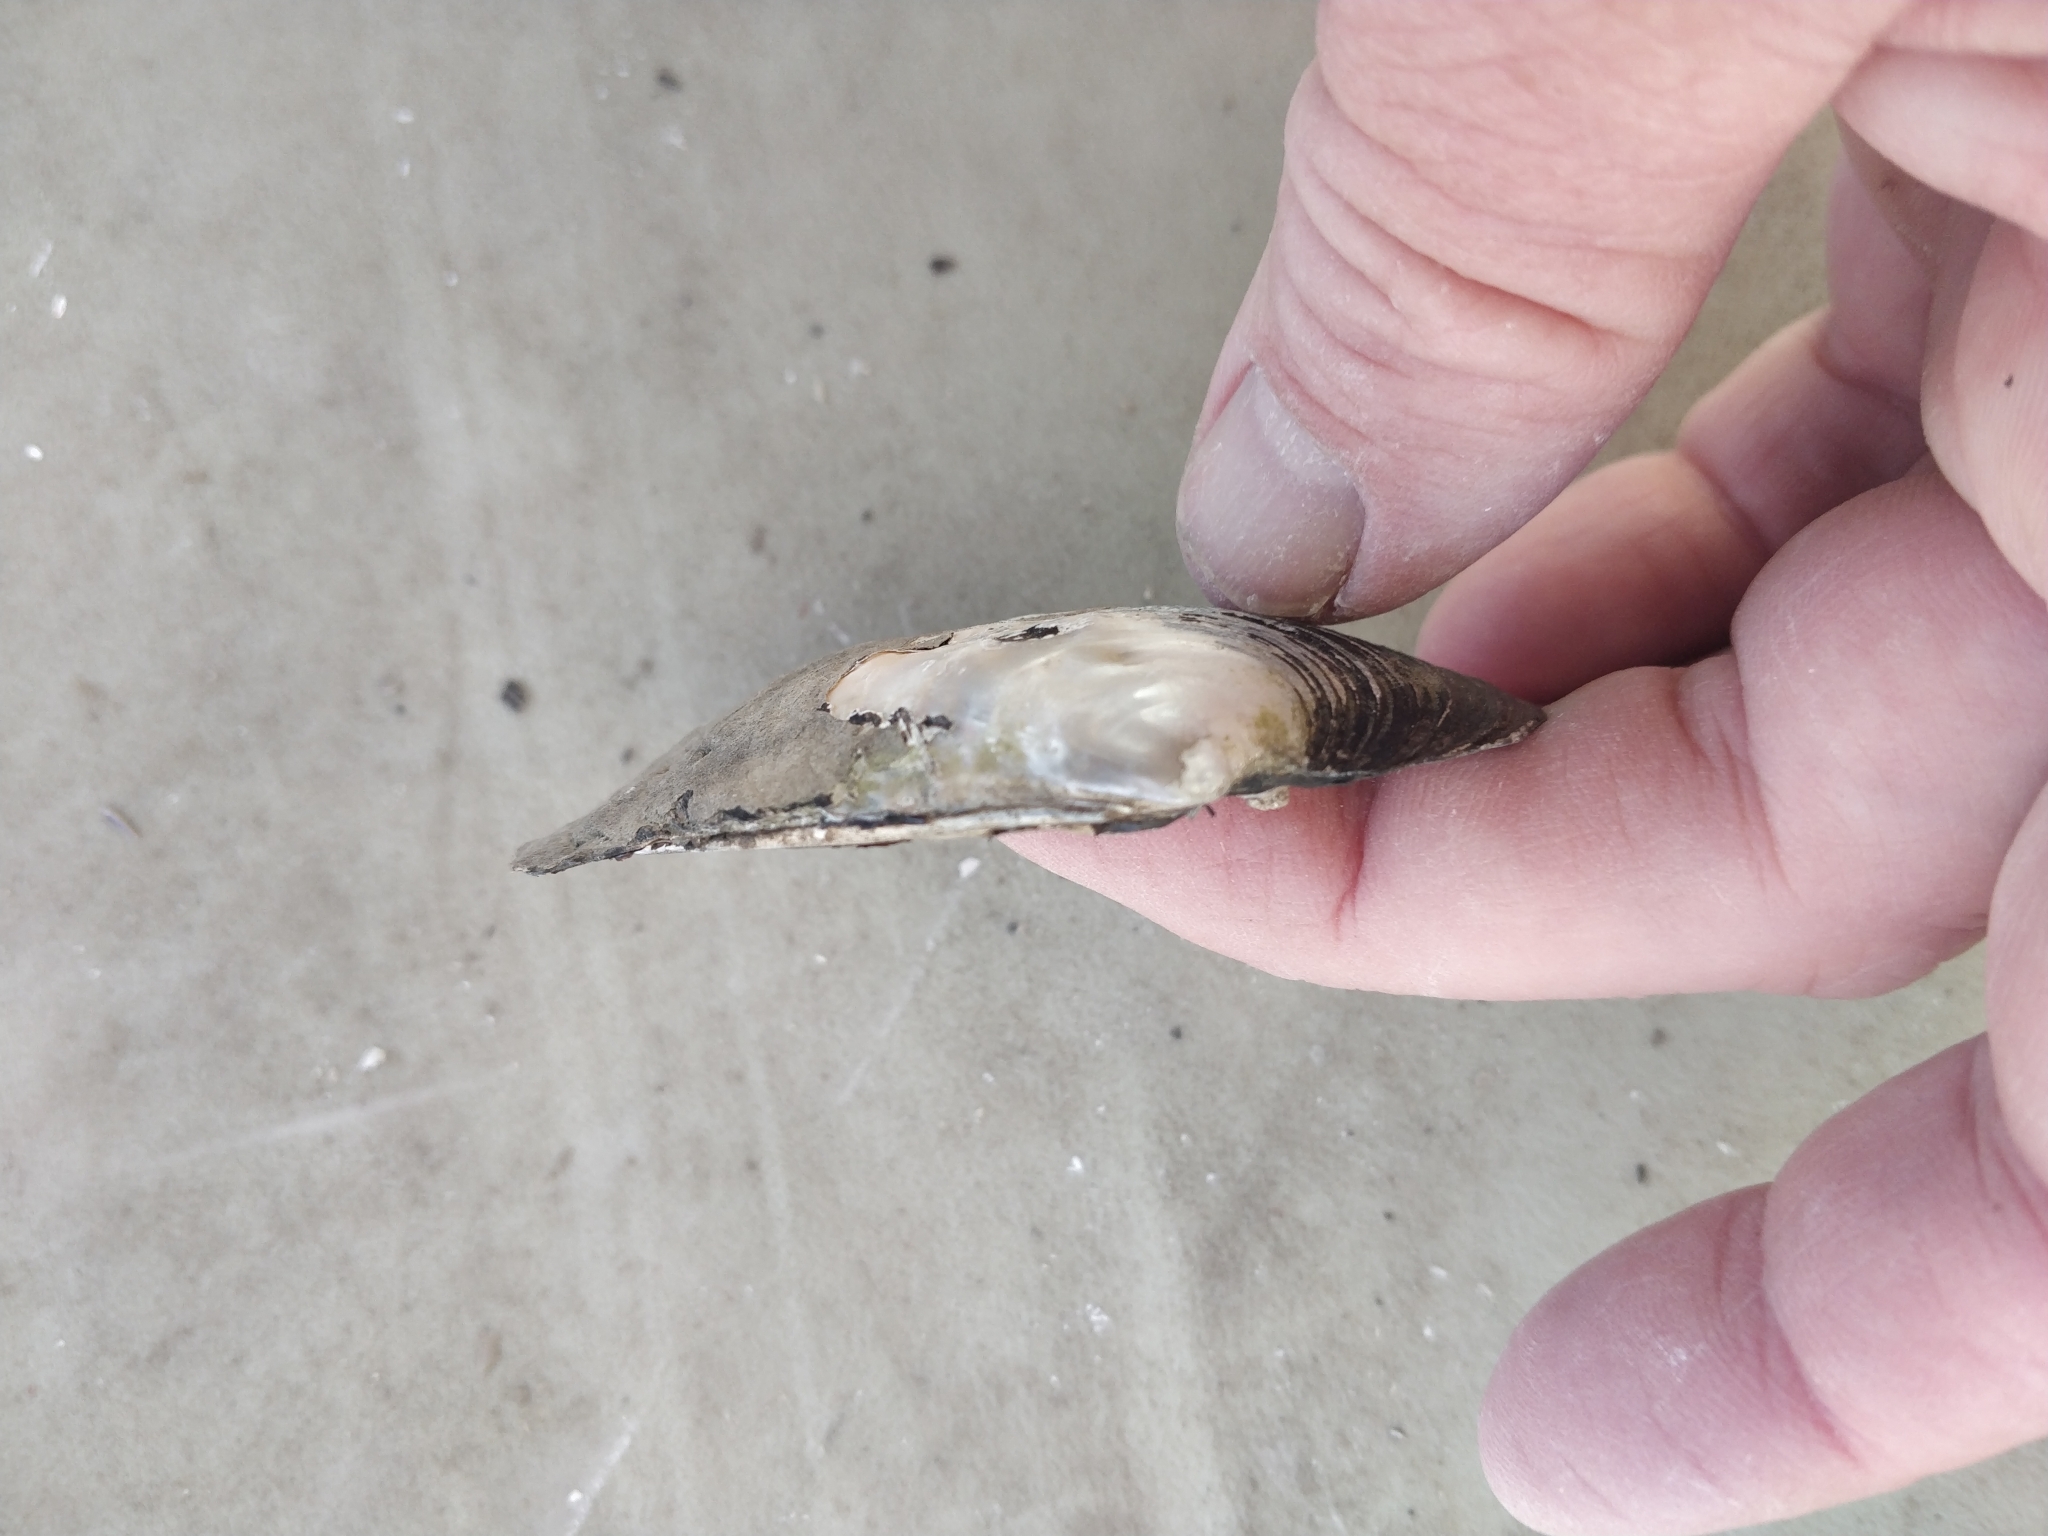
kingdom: Animalia
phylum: Mollusca
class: Bivalvia
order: Unionida
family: Unionidae
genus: Amblema
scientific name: Amblema plicata
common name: Threeridge
